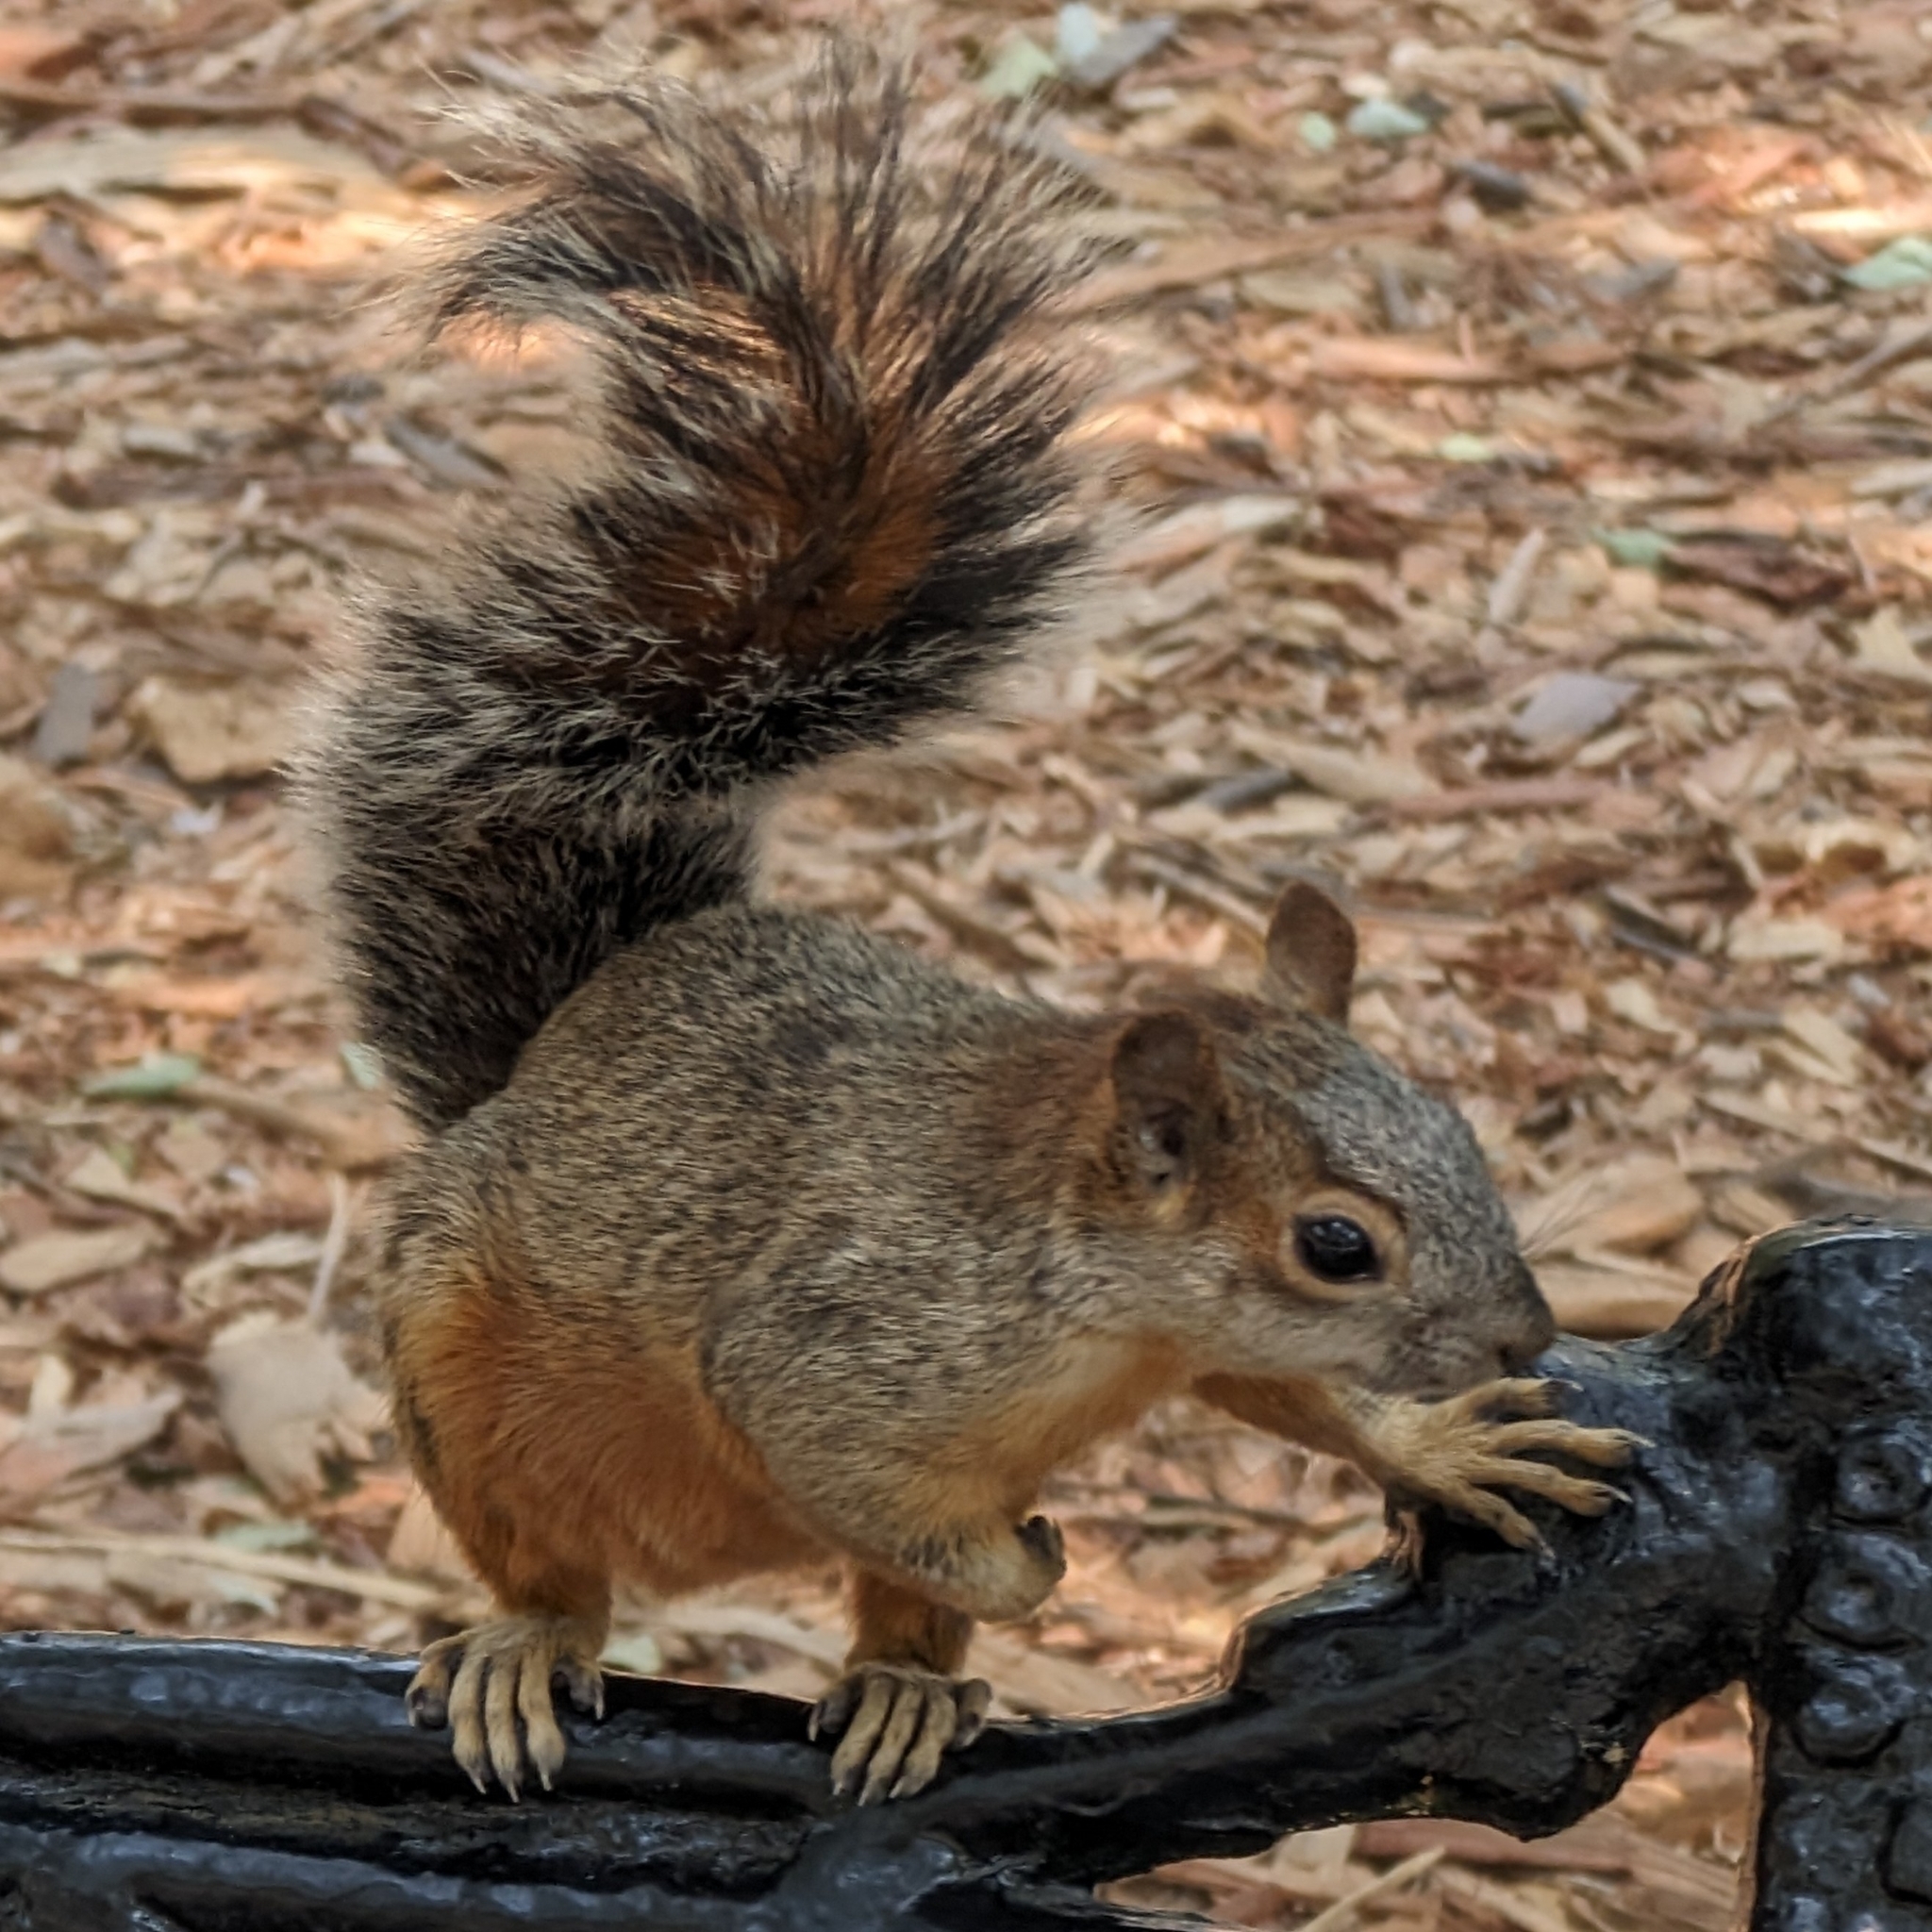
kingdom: Animalia
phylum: Chordata
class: Mammalia
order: Rodentia
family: Sciuridae
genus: Sciurus
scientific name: Sciurus aureogaster
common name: Red-bellied squirrel
